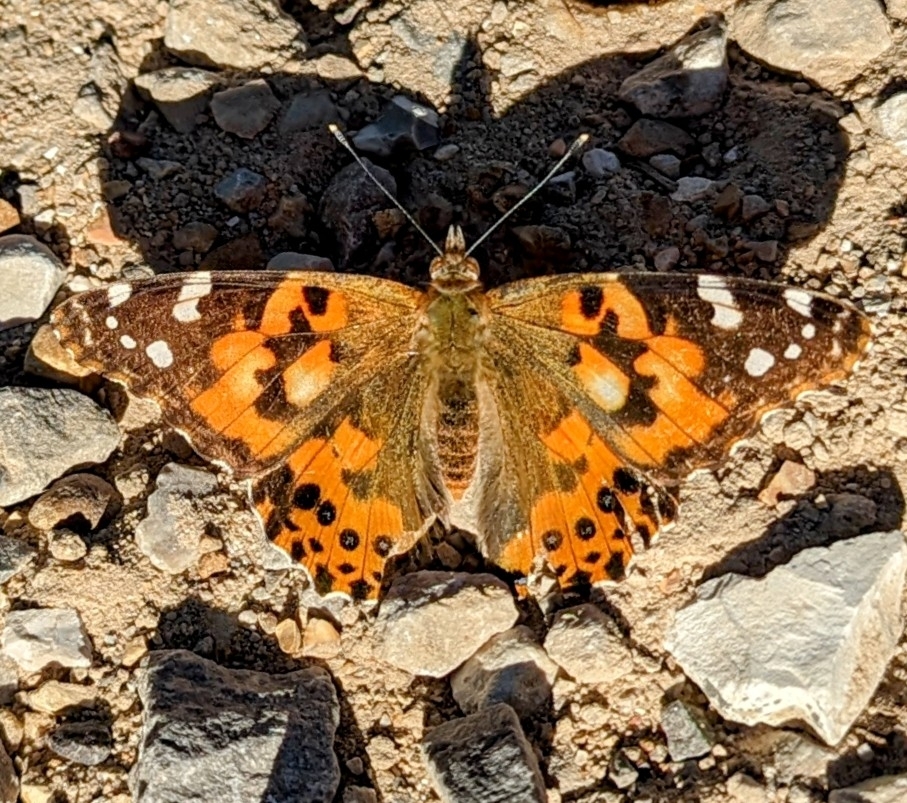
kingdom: Animalia
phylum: Arthropoda
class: Insecta
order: Lepidoptera
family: Nymphalidae
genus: Vanessa
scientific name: Vanessa cardui
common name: Painted lady
